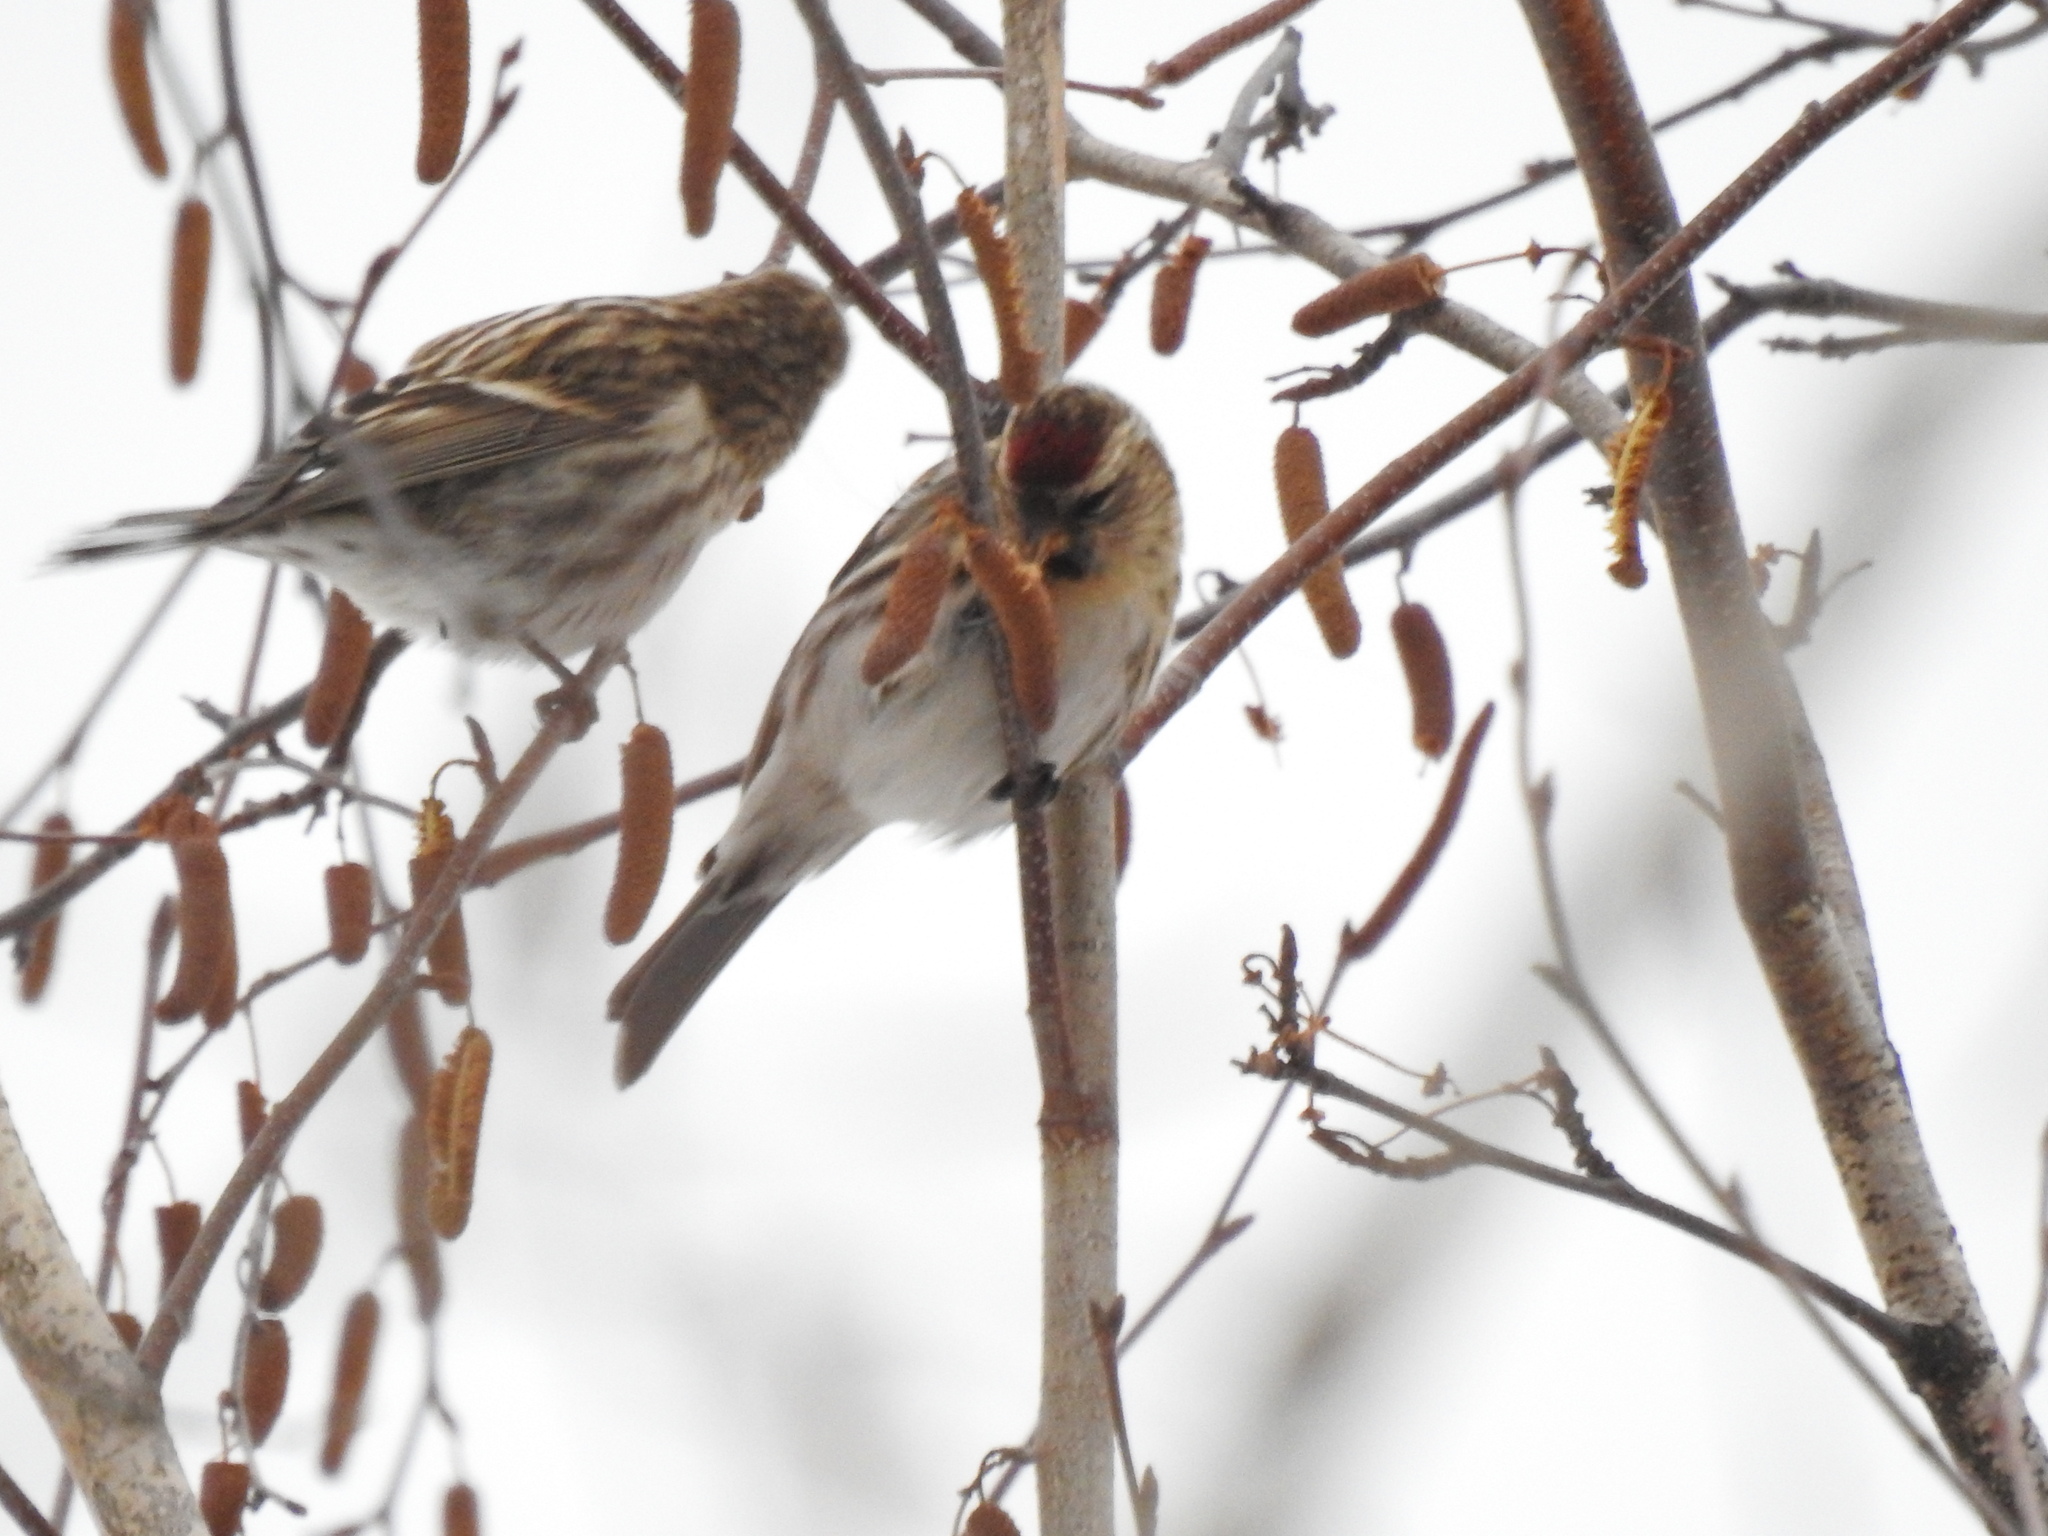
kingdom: Animalia
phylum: Chordata
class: Aves
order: Passeriformes
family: Fringillidae
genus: Acanthis
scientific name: Acanthis flammea
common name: Common redpoll
